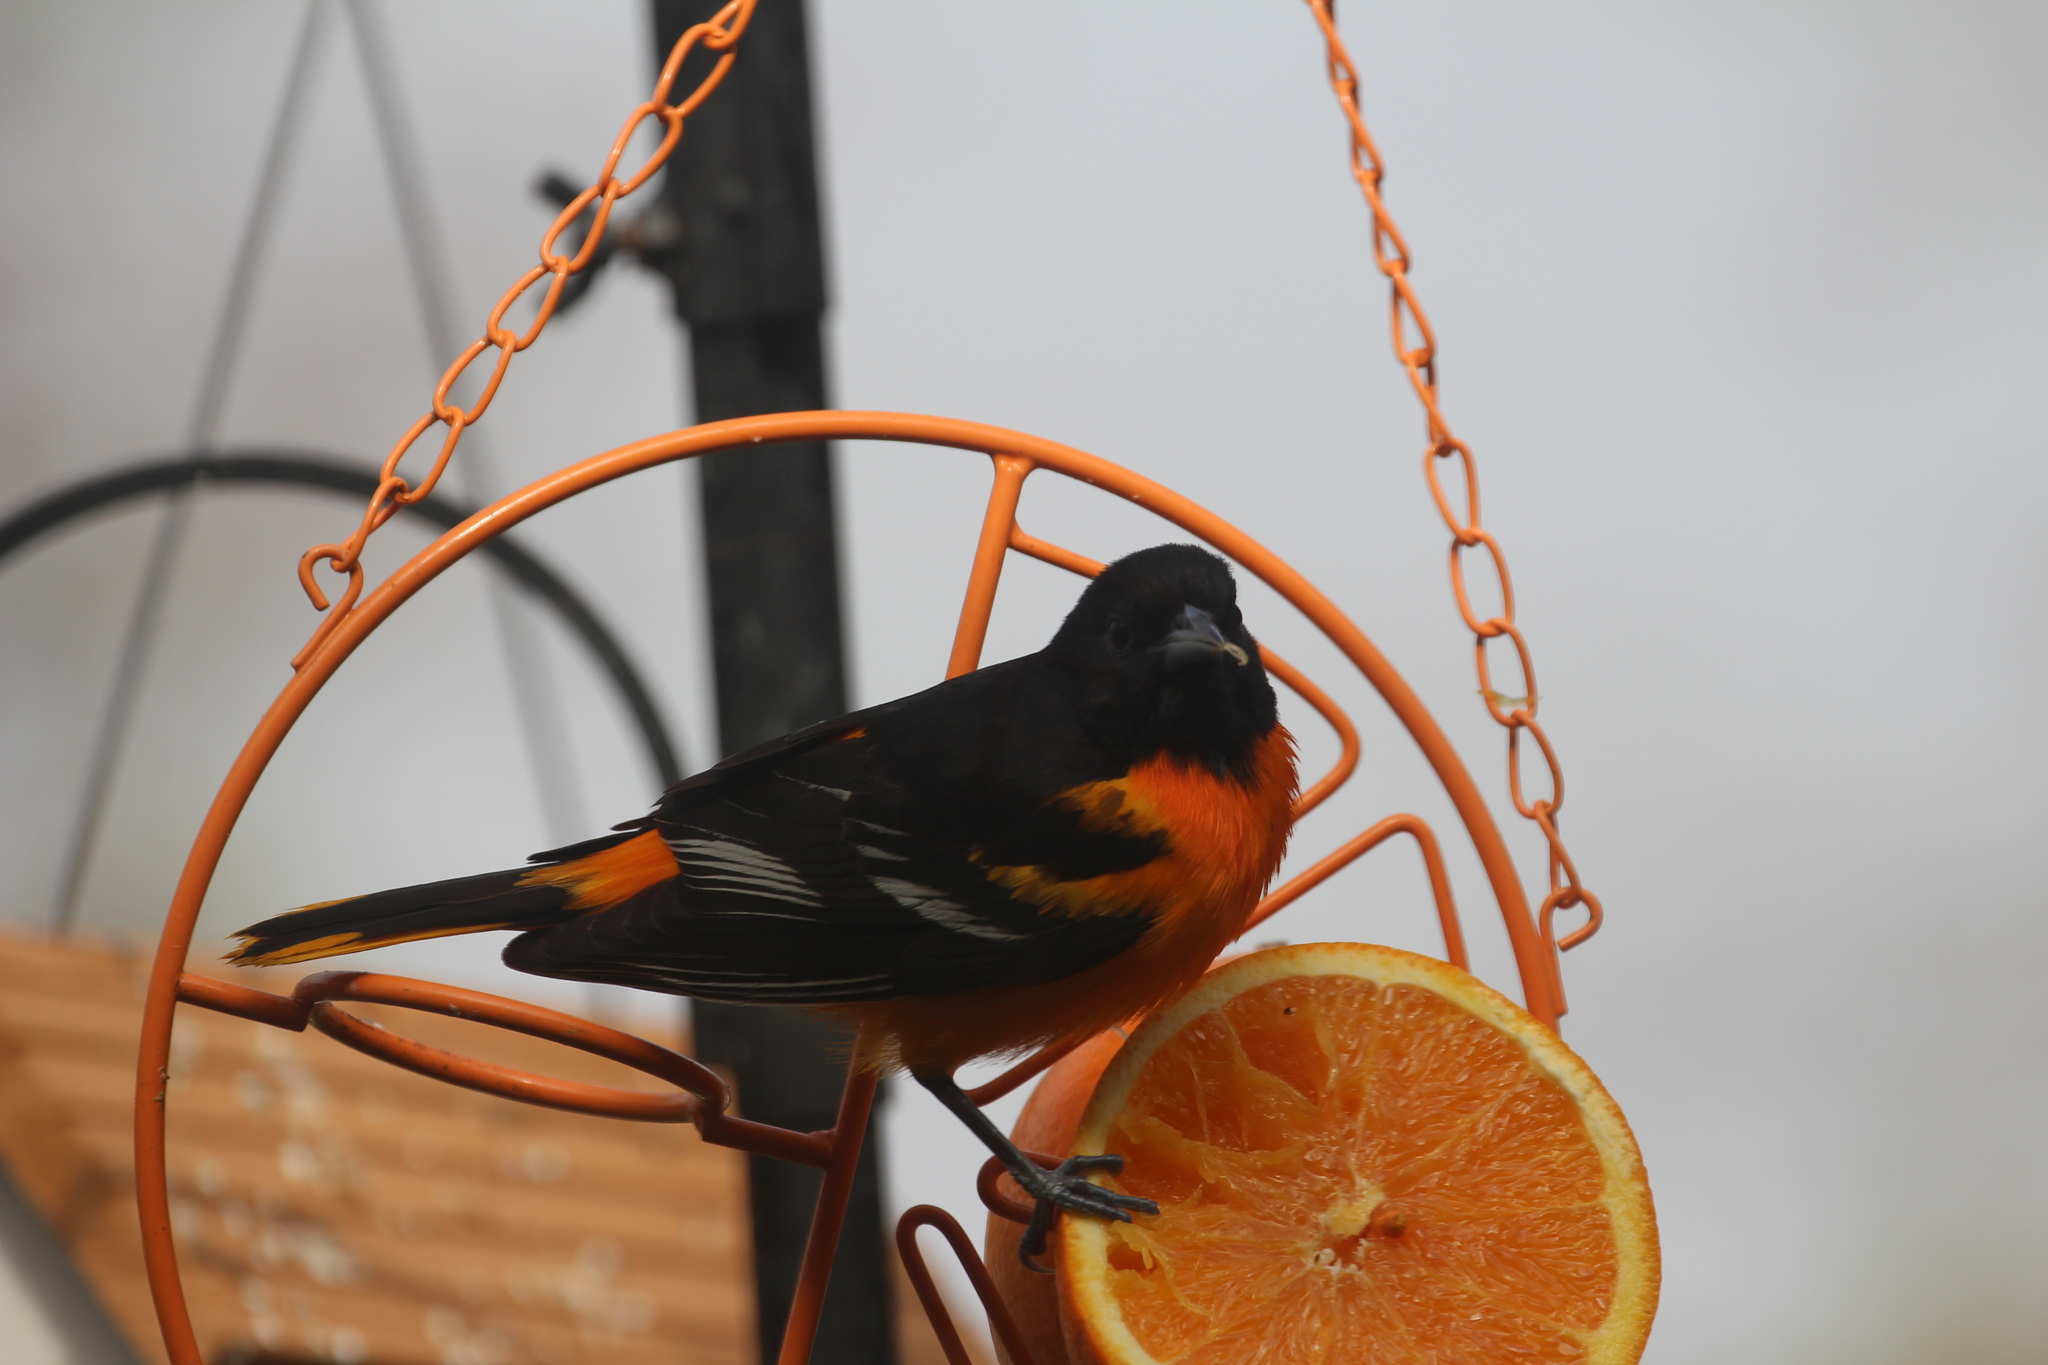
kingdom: Animalia
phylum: Chordata
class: Aves
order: Passeriformes
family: Icteridae
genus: Icterus
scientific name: Icterus galbula
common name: Baltimore oriole
